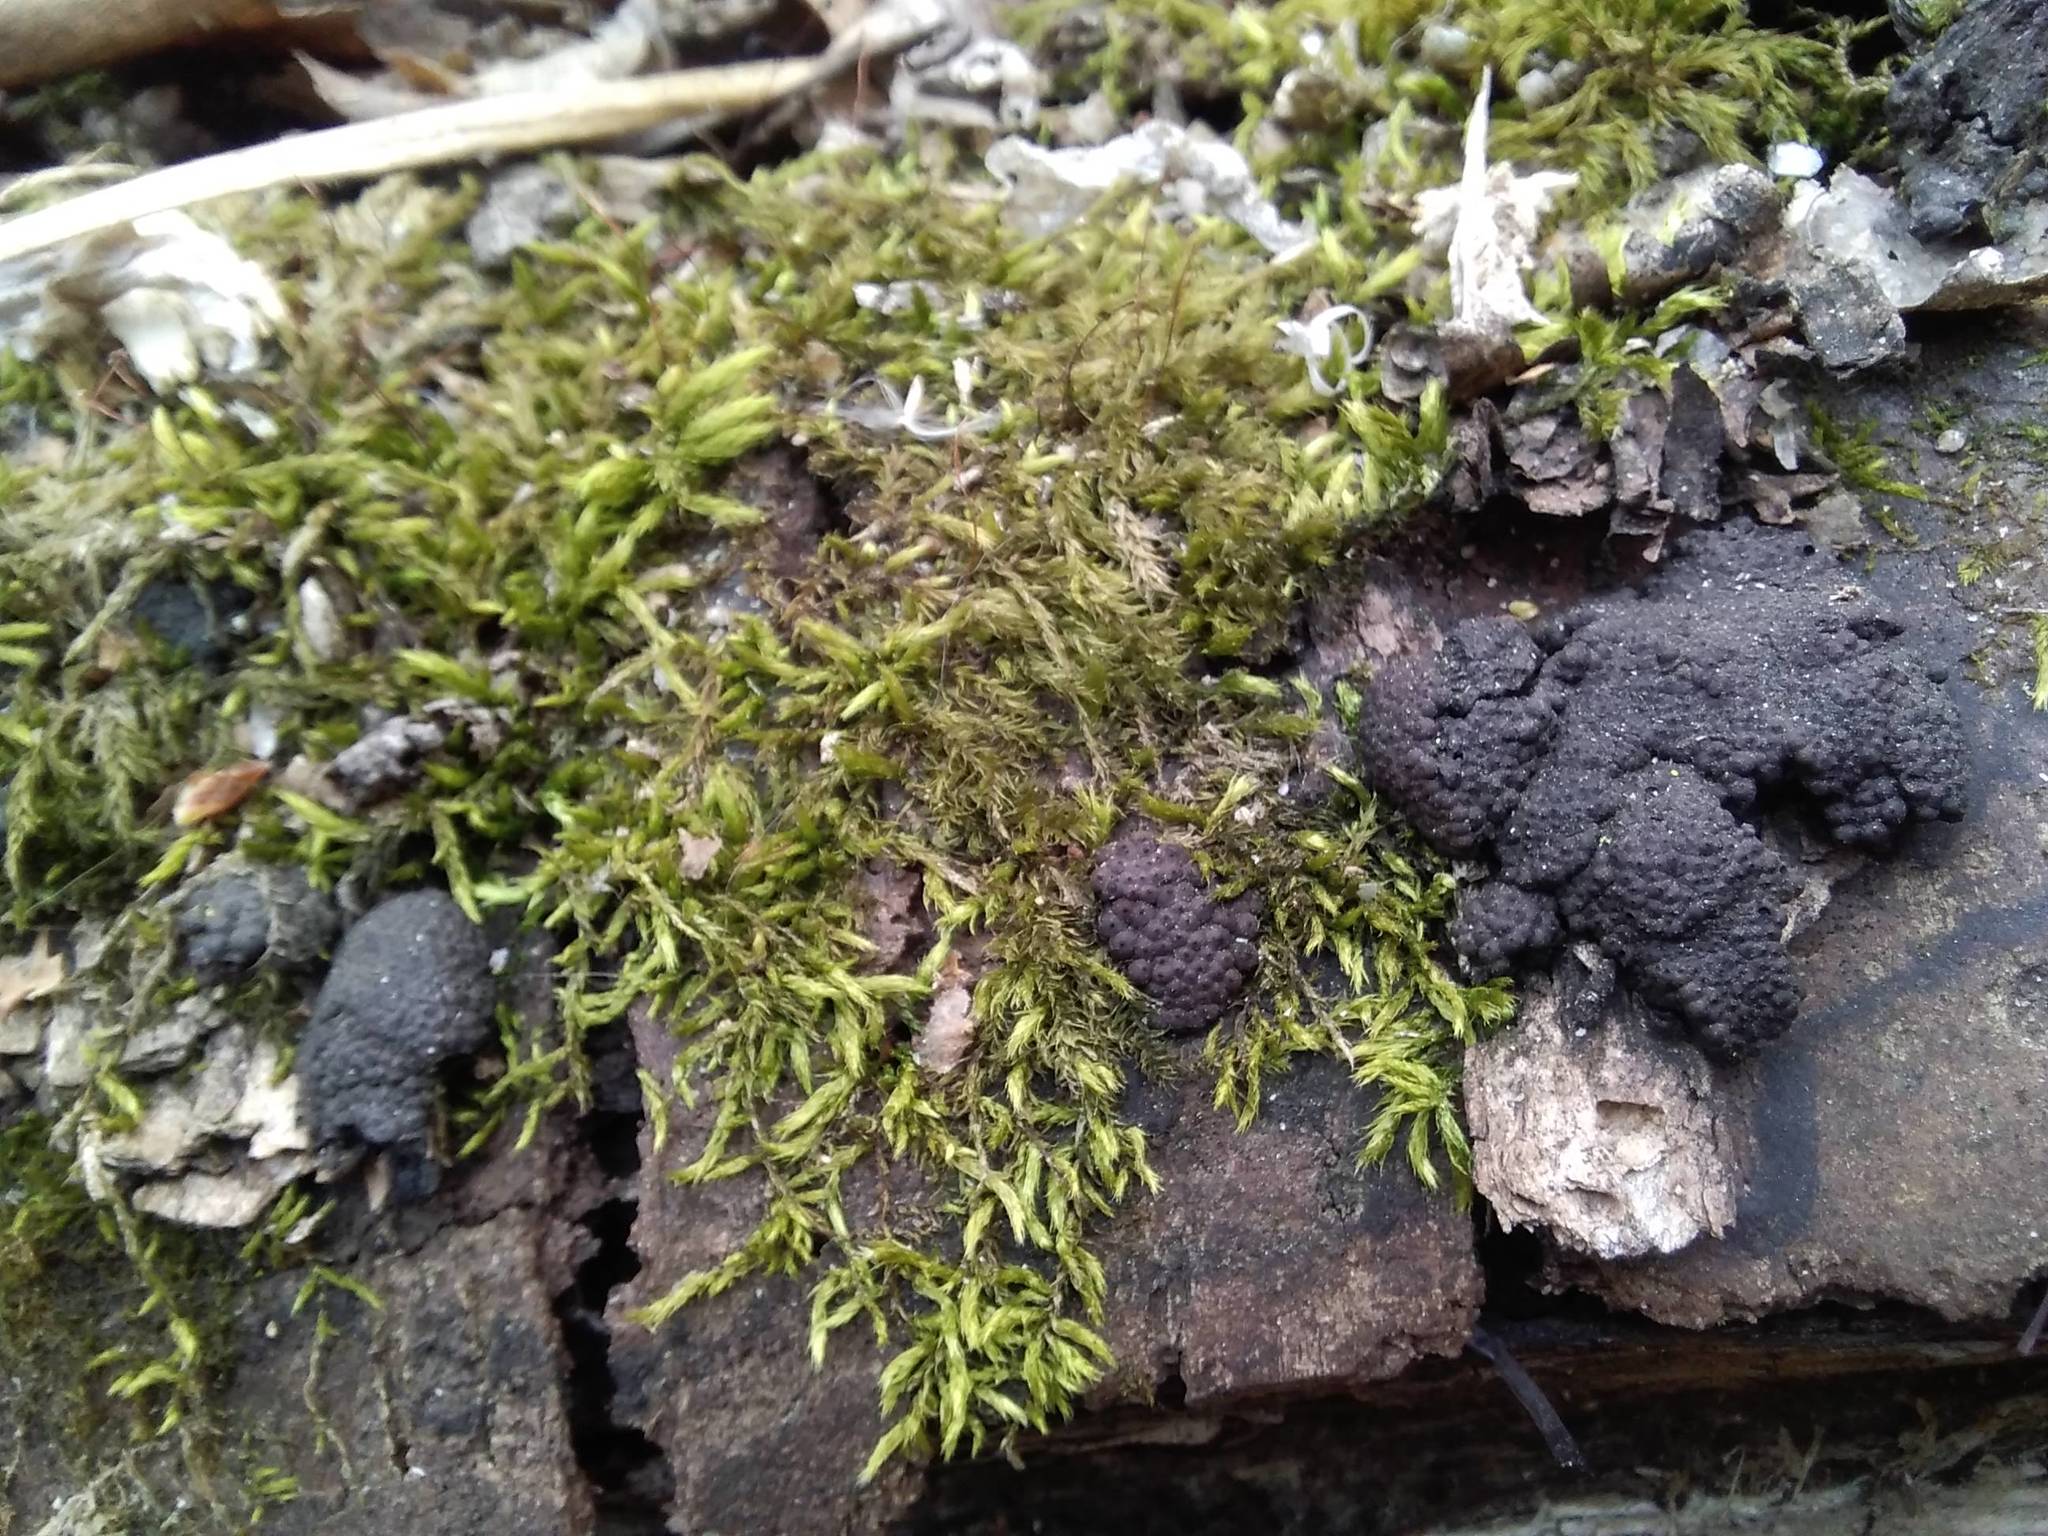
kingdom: Fungi
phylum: Ascomycota
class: Sordariomycetes
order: Xylariales
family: Hypoxylaceae
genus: Jackrogersella
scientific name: Jackrogersella multiformis
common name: Birch woodwart
